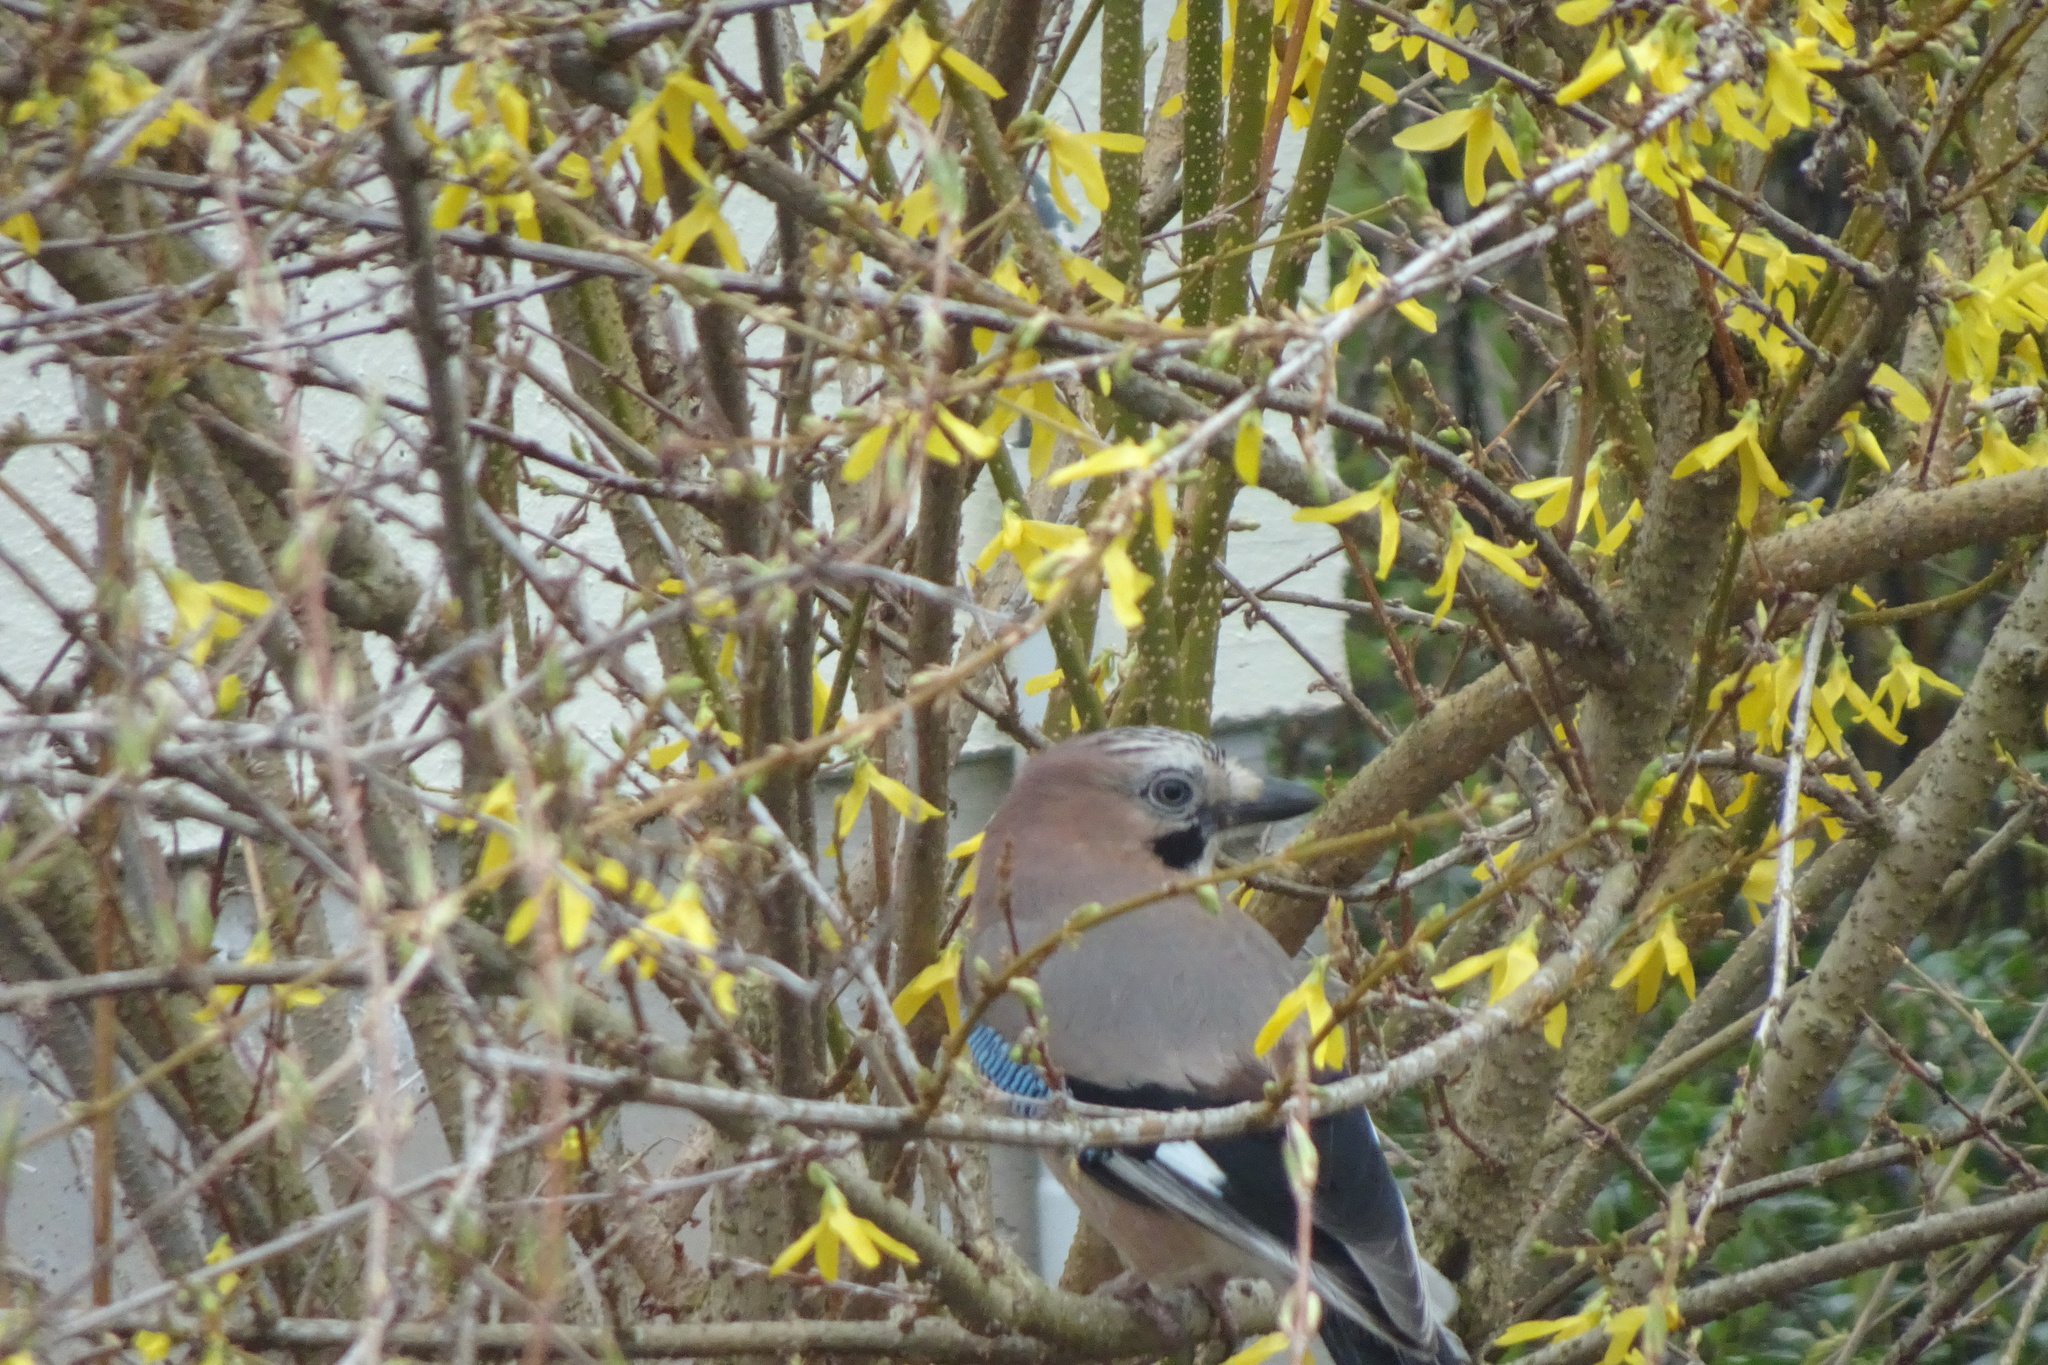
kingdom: Animalia
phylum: Chordata
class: Aves
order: Passeriformes
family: Corvidae
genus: Garrulus
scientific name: Garrulus glandarius
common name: Eurasian jay
